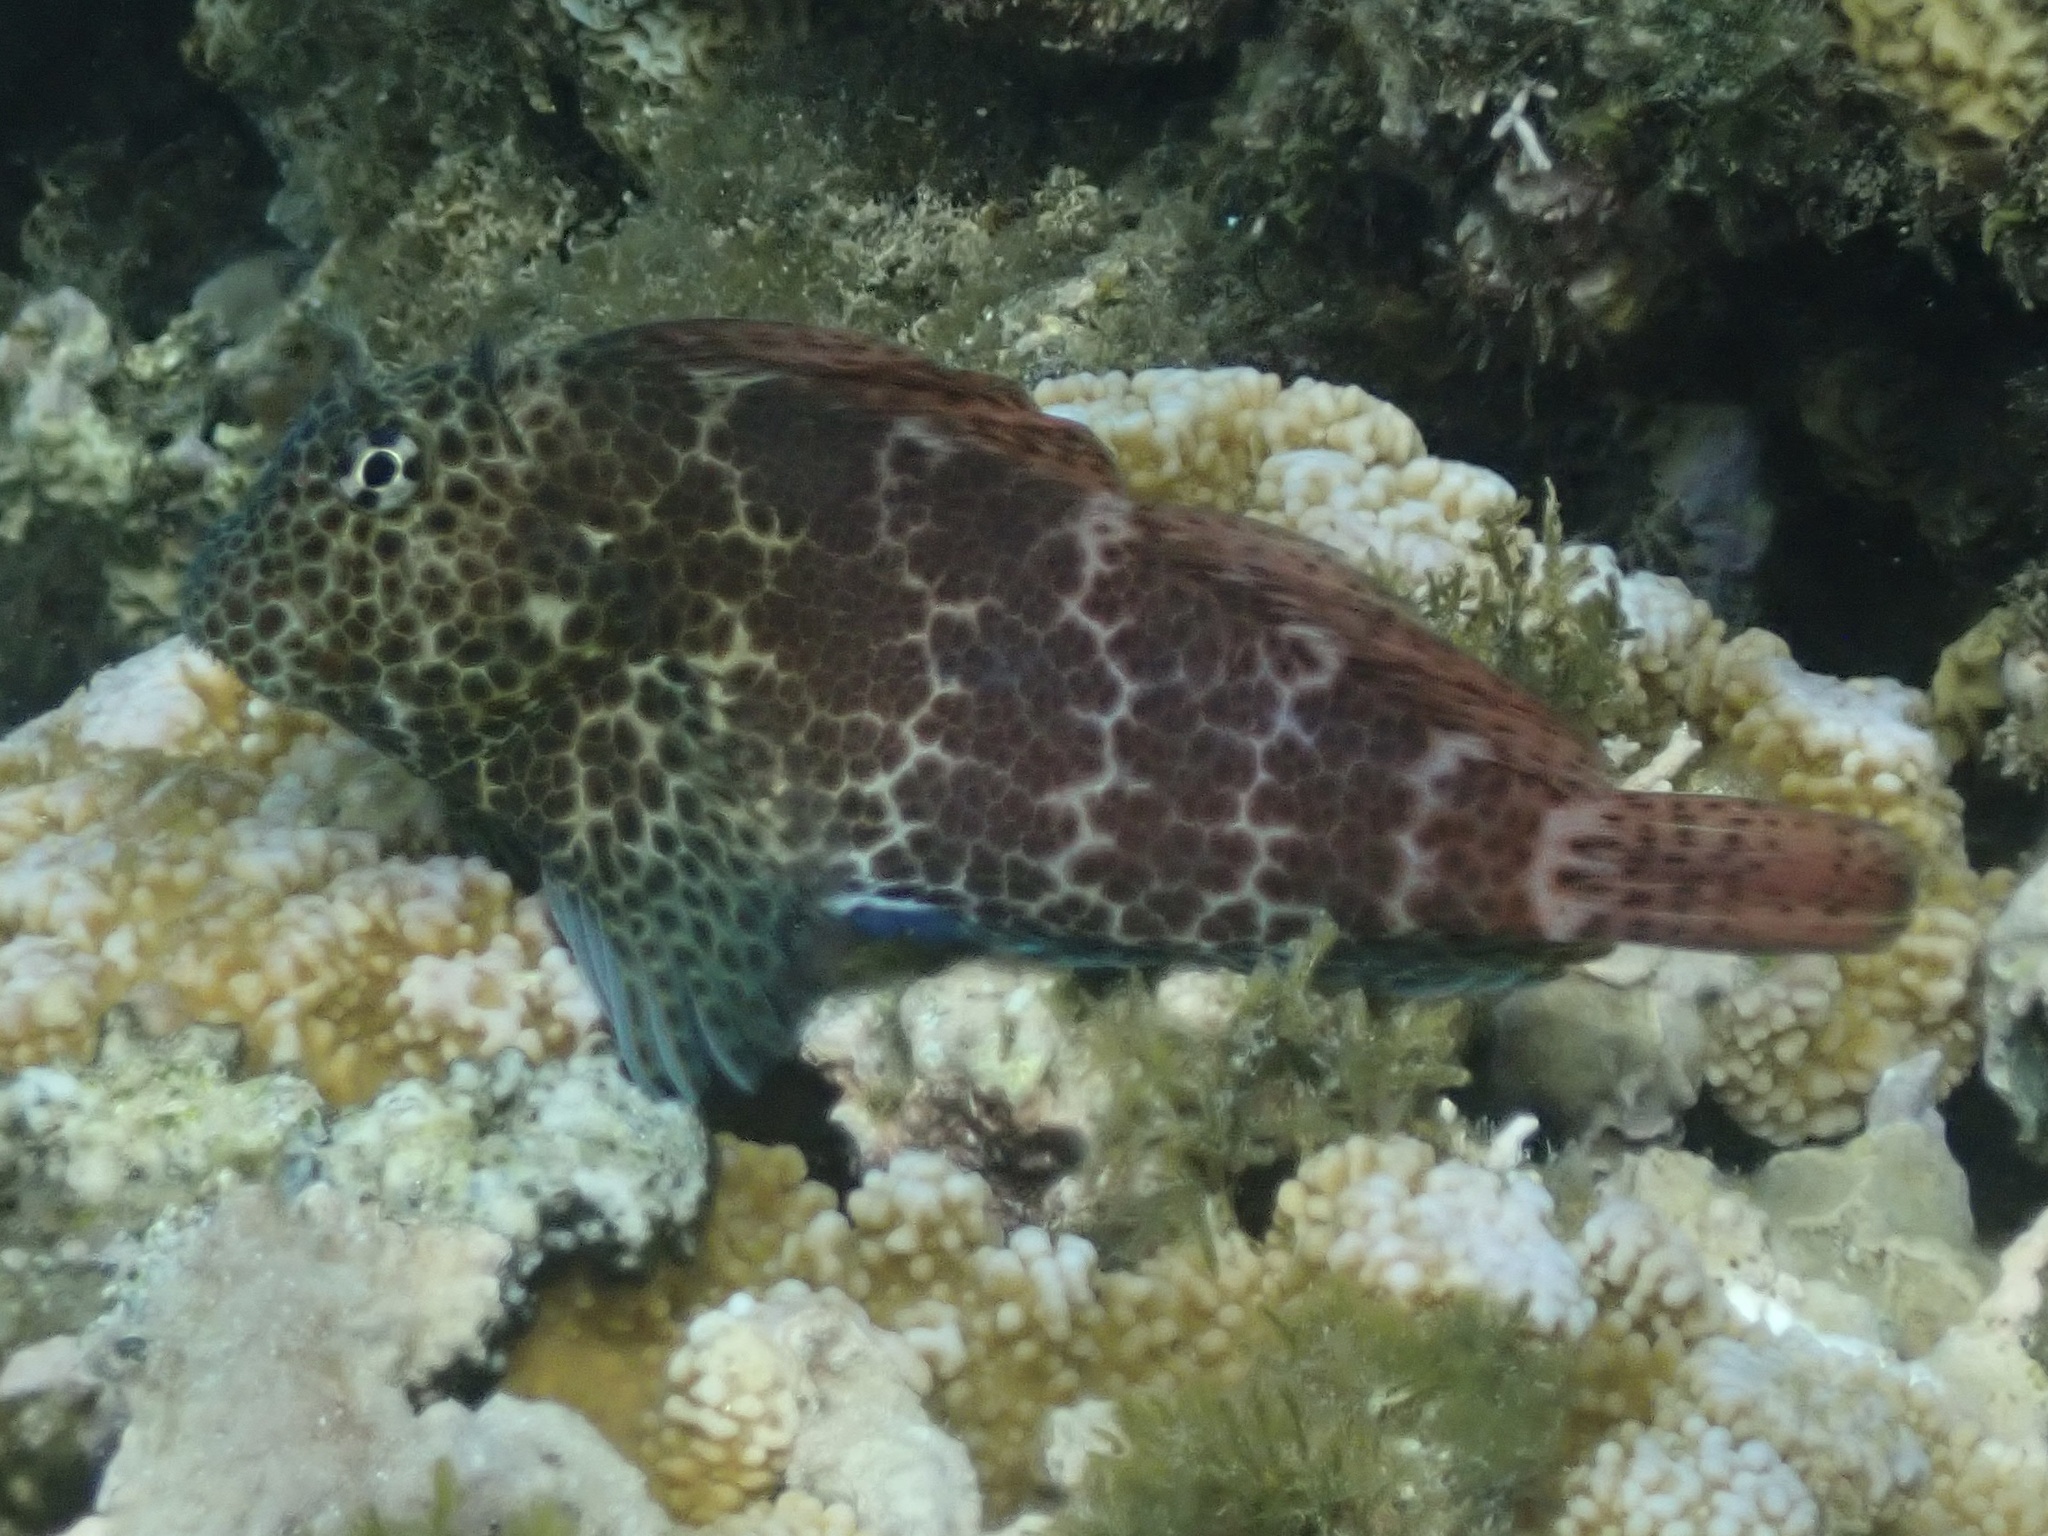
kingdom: Animalia
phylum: Chordata
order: Perciformes
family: Blenniidae
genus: Exallias
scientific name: Exallias brevis
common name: Leopard blenny
